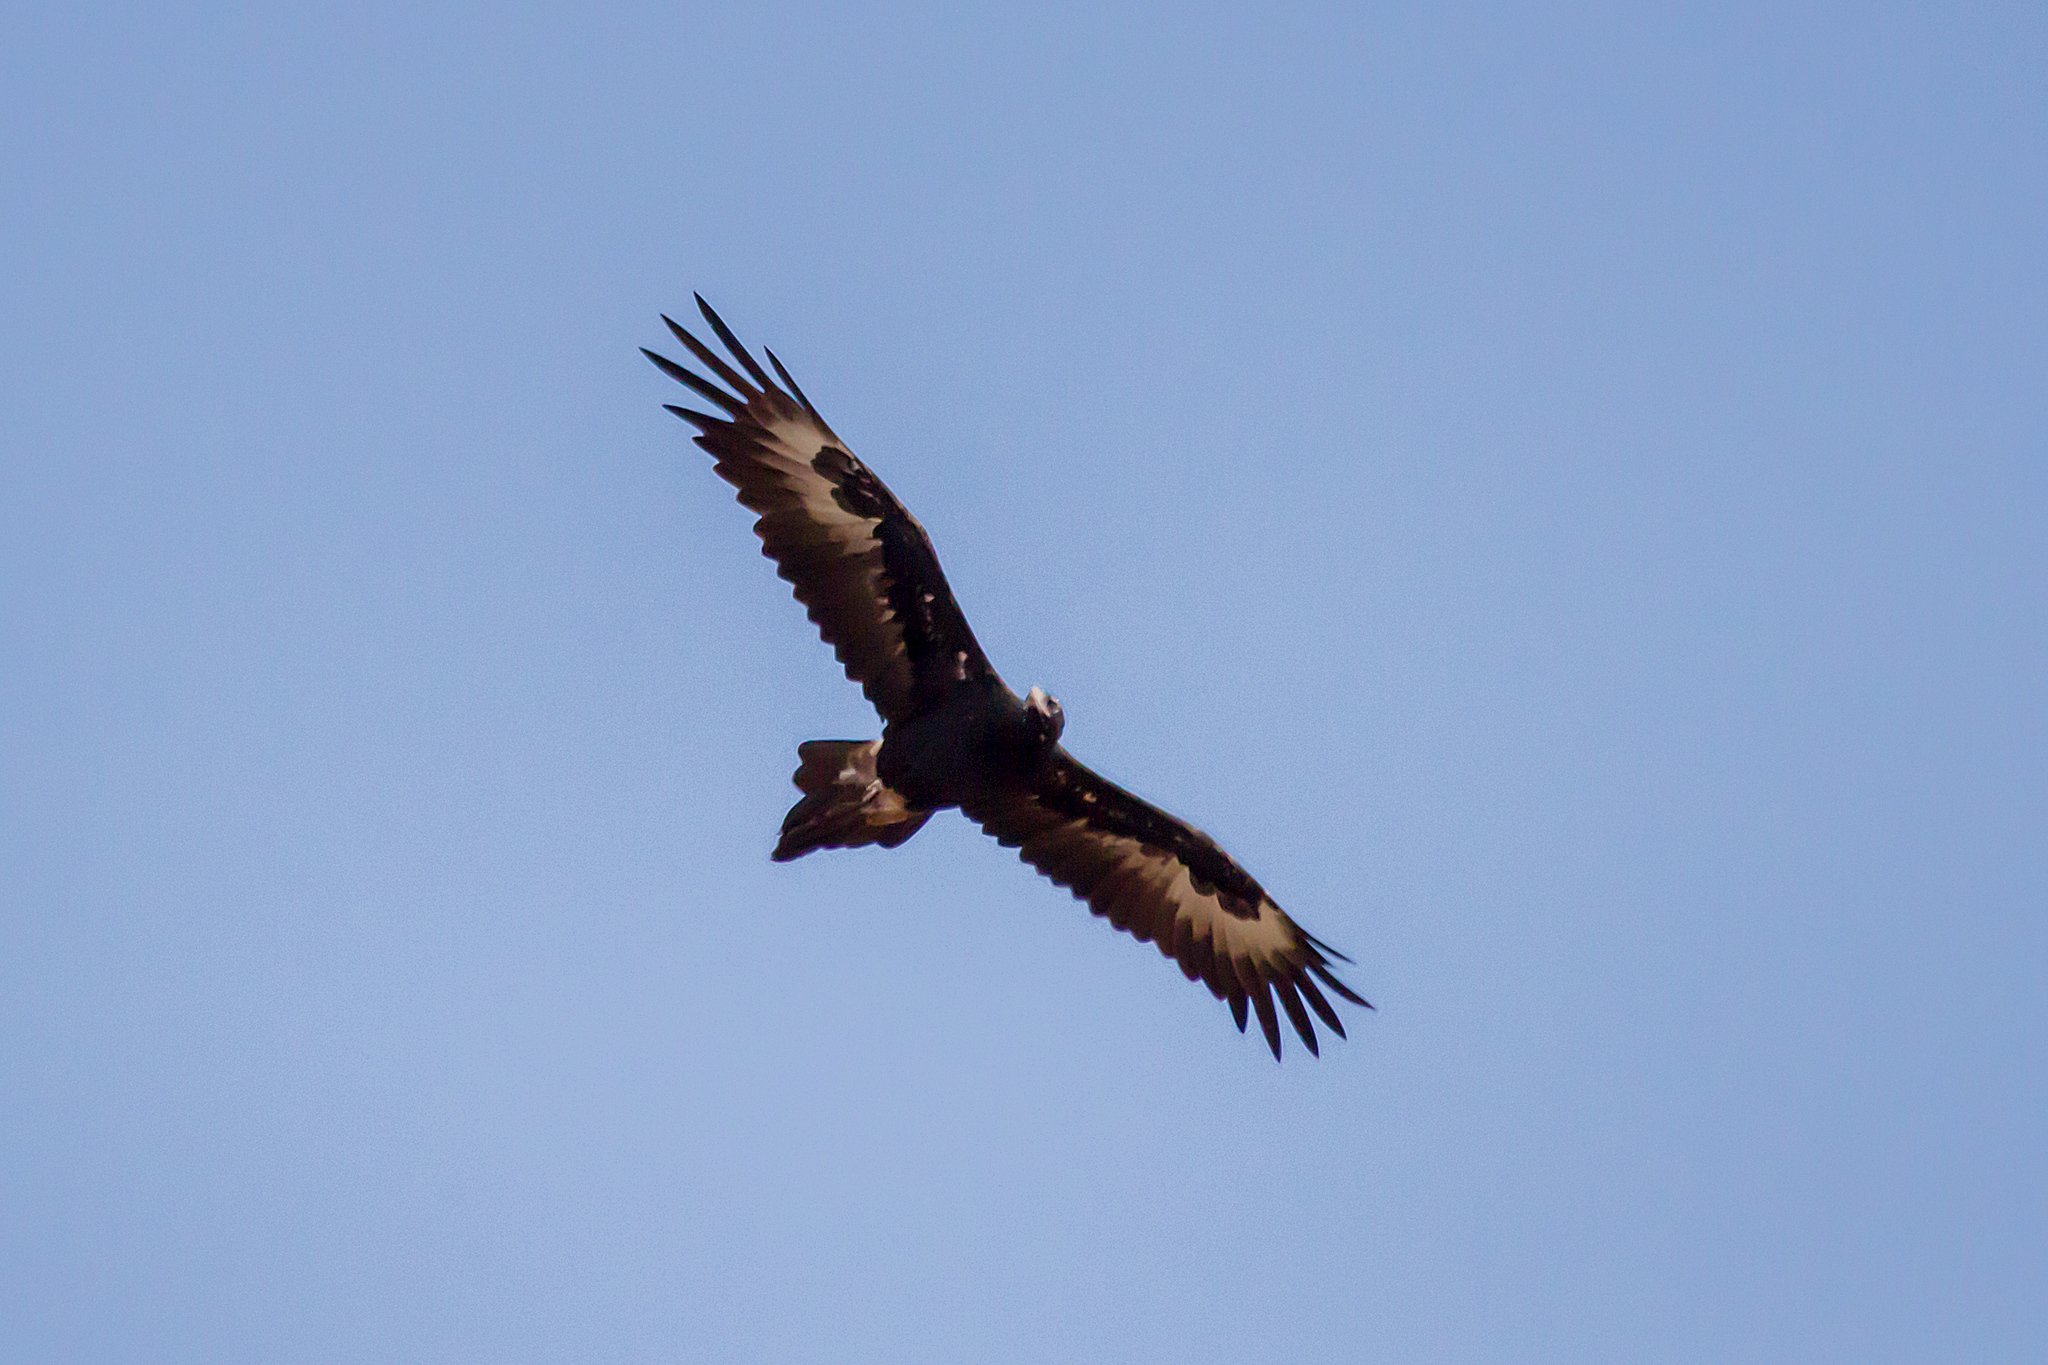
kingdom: Animalia
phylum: Chordata
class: Aves
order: Accipitriformes
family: Accipitridae
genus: Aquila
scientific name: Aquila audax
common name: Wedge-tailed eagle
